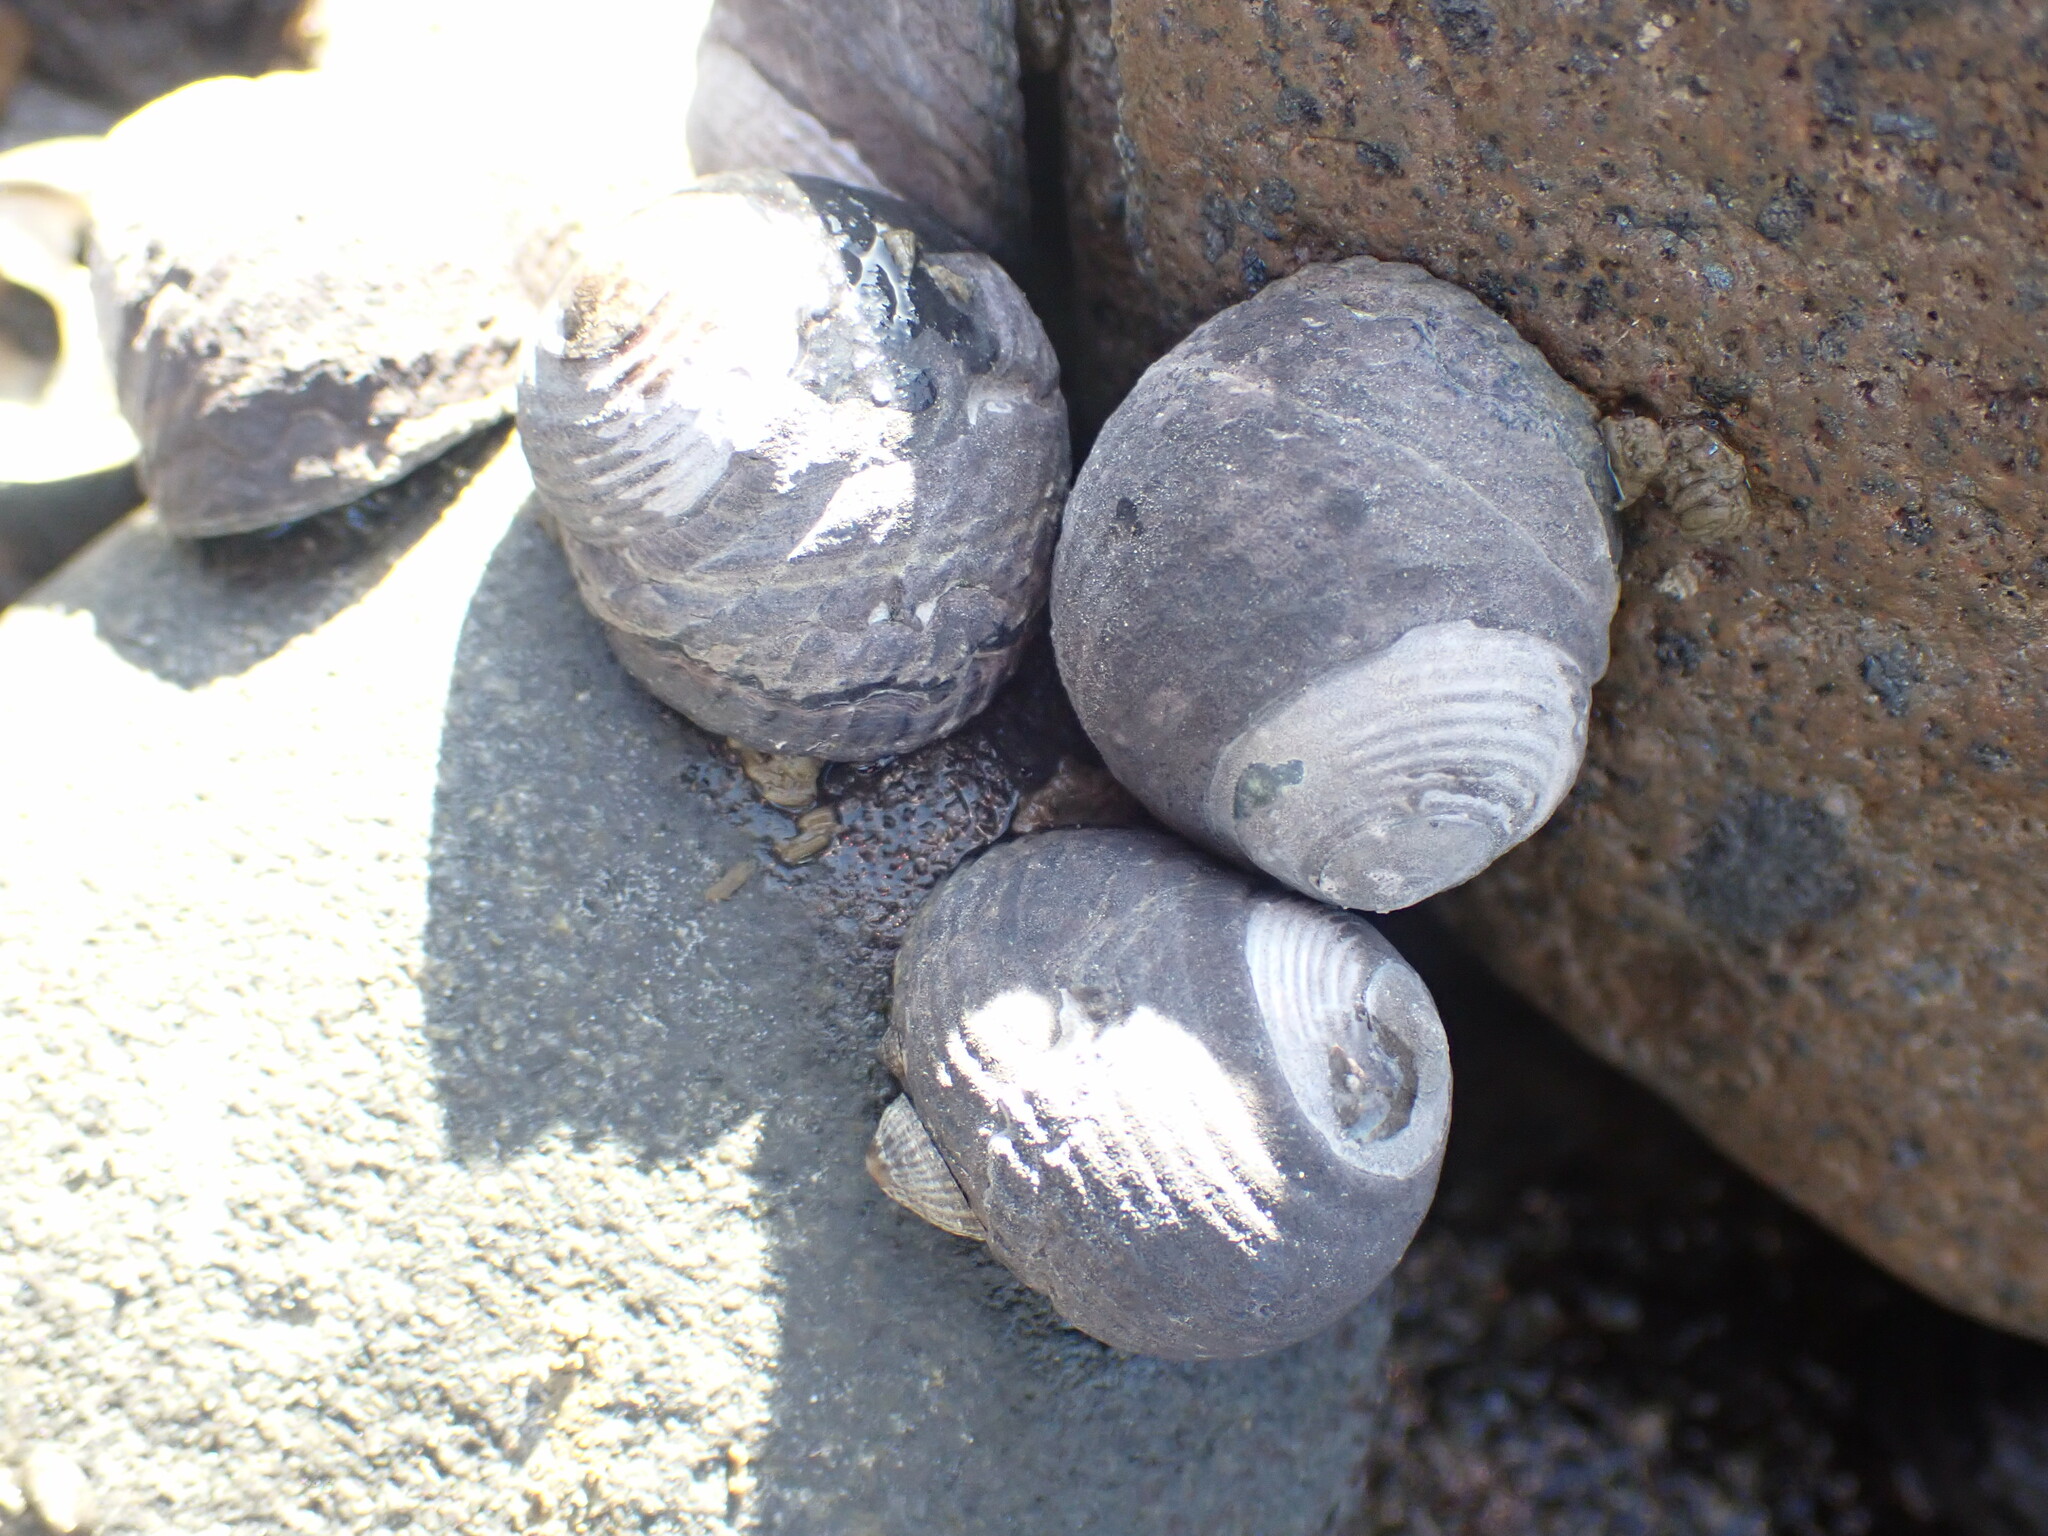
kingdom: Animalia
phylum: Mollusca
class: Gastropoda
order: Trochida
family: Trochidae
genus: Diloma
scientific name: Diloma zelandicum
